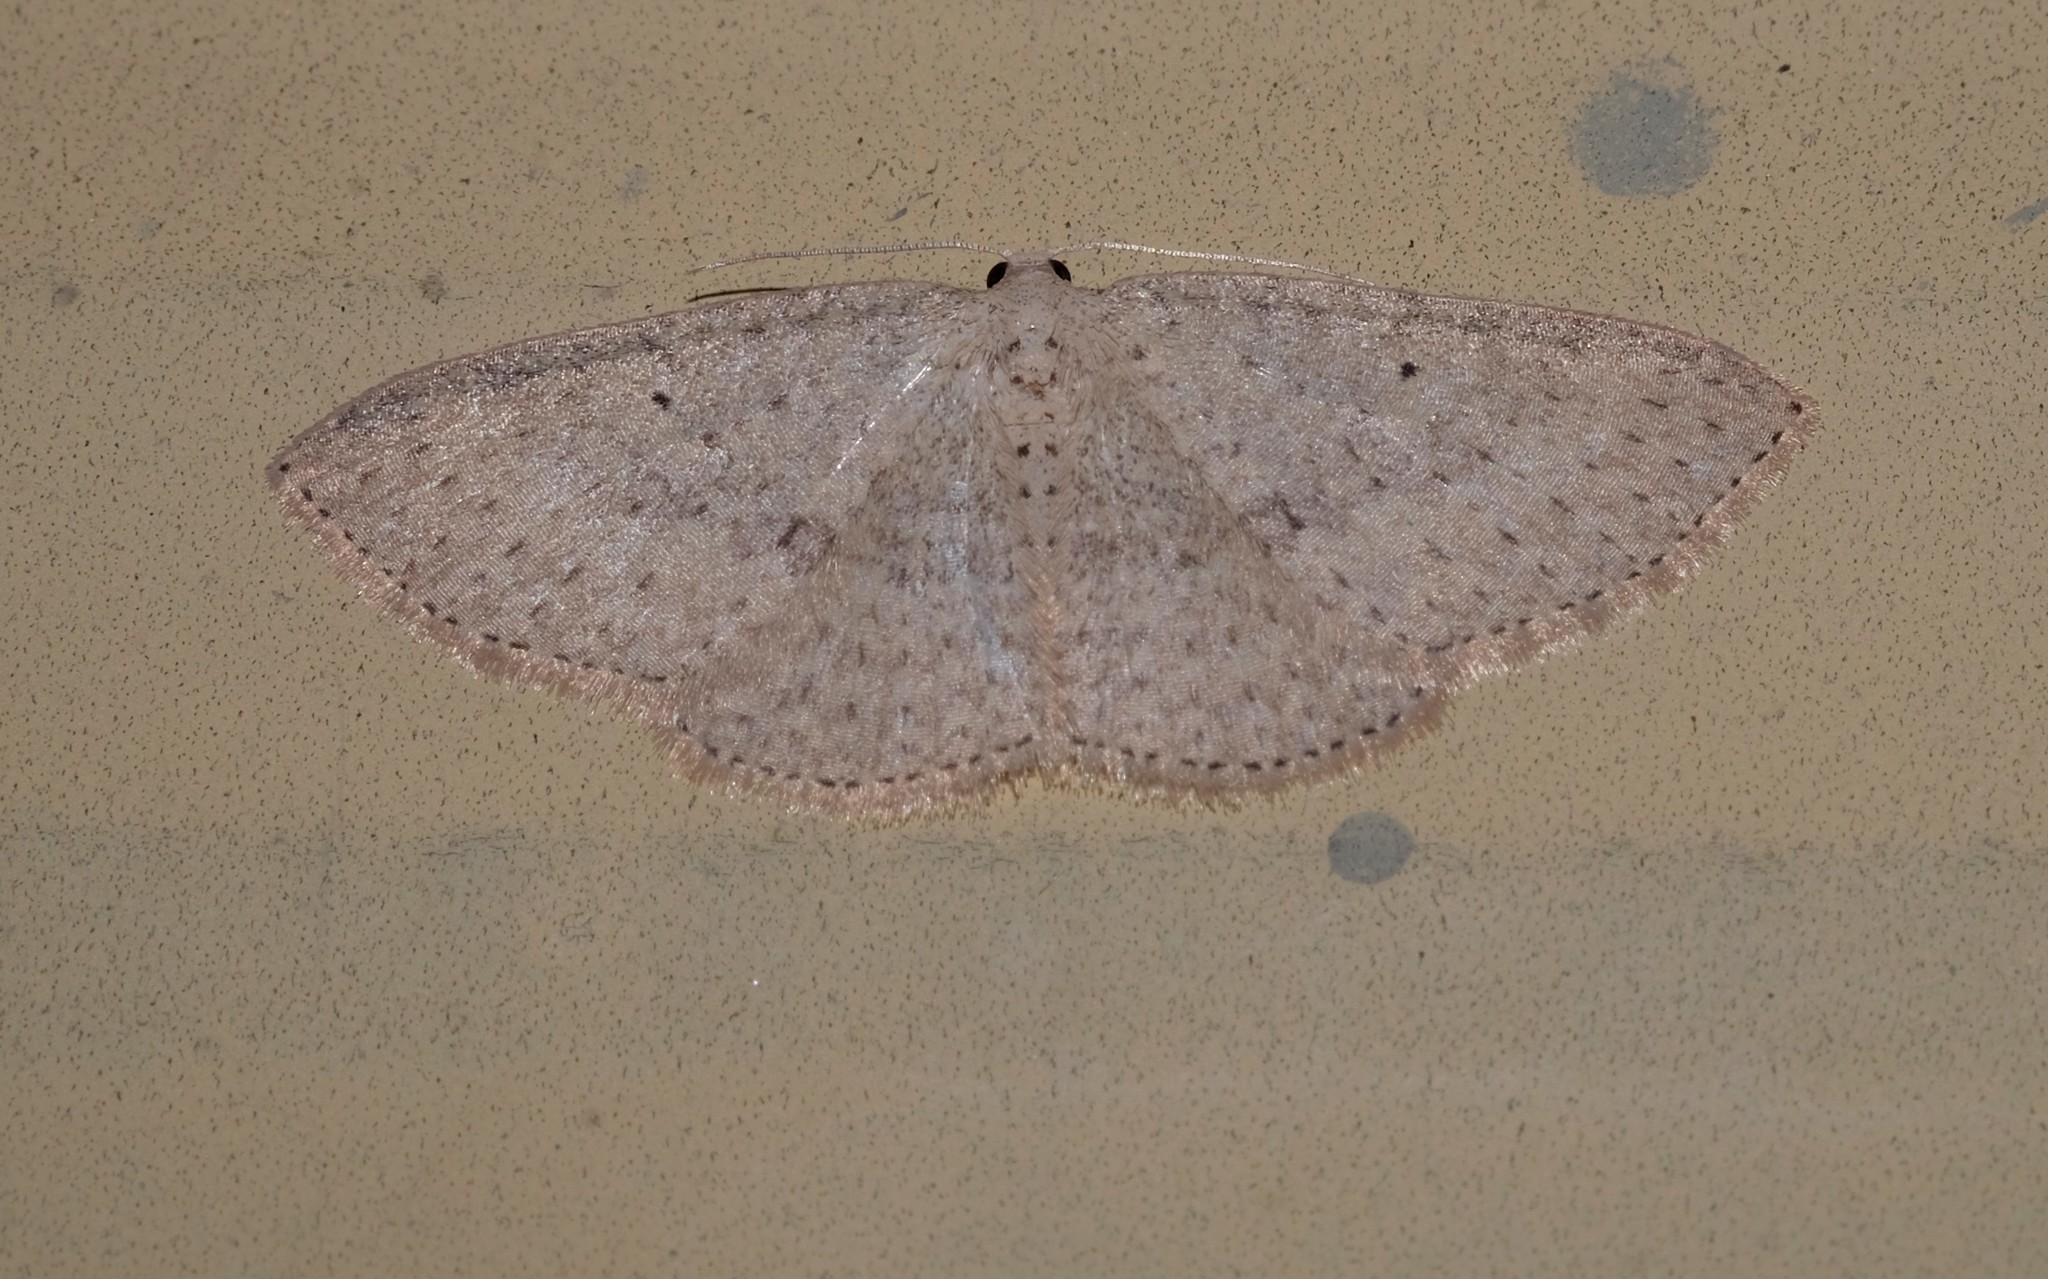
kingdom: Animalia
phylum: Arthropoda
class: Insecta
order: Lepidoptera
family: Geometridae
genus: Poecilasthena
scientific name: Poecilasthena anthodes
